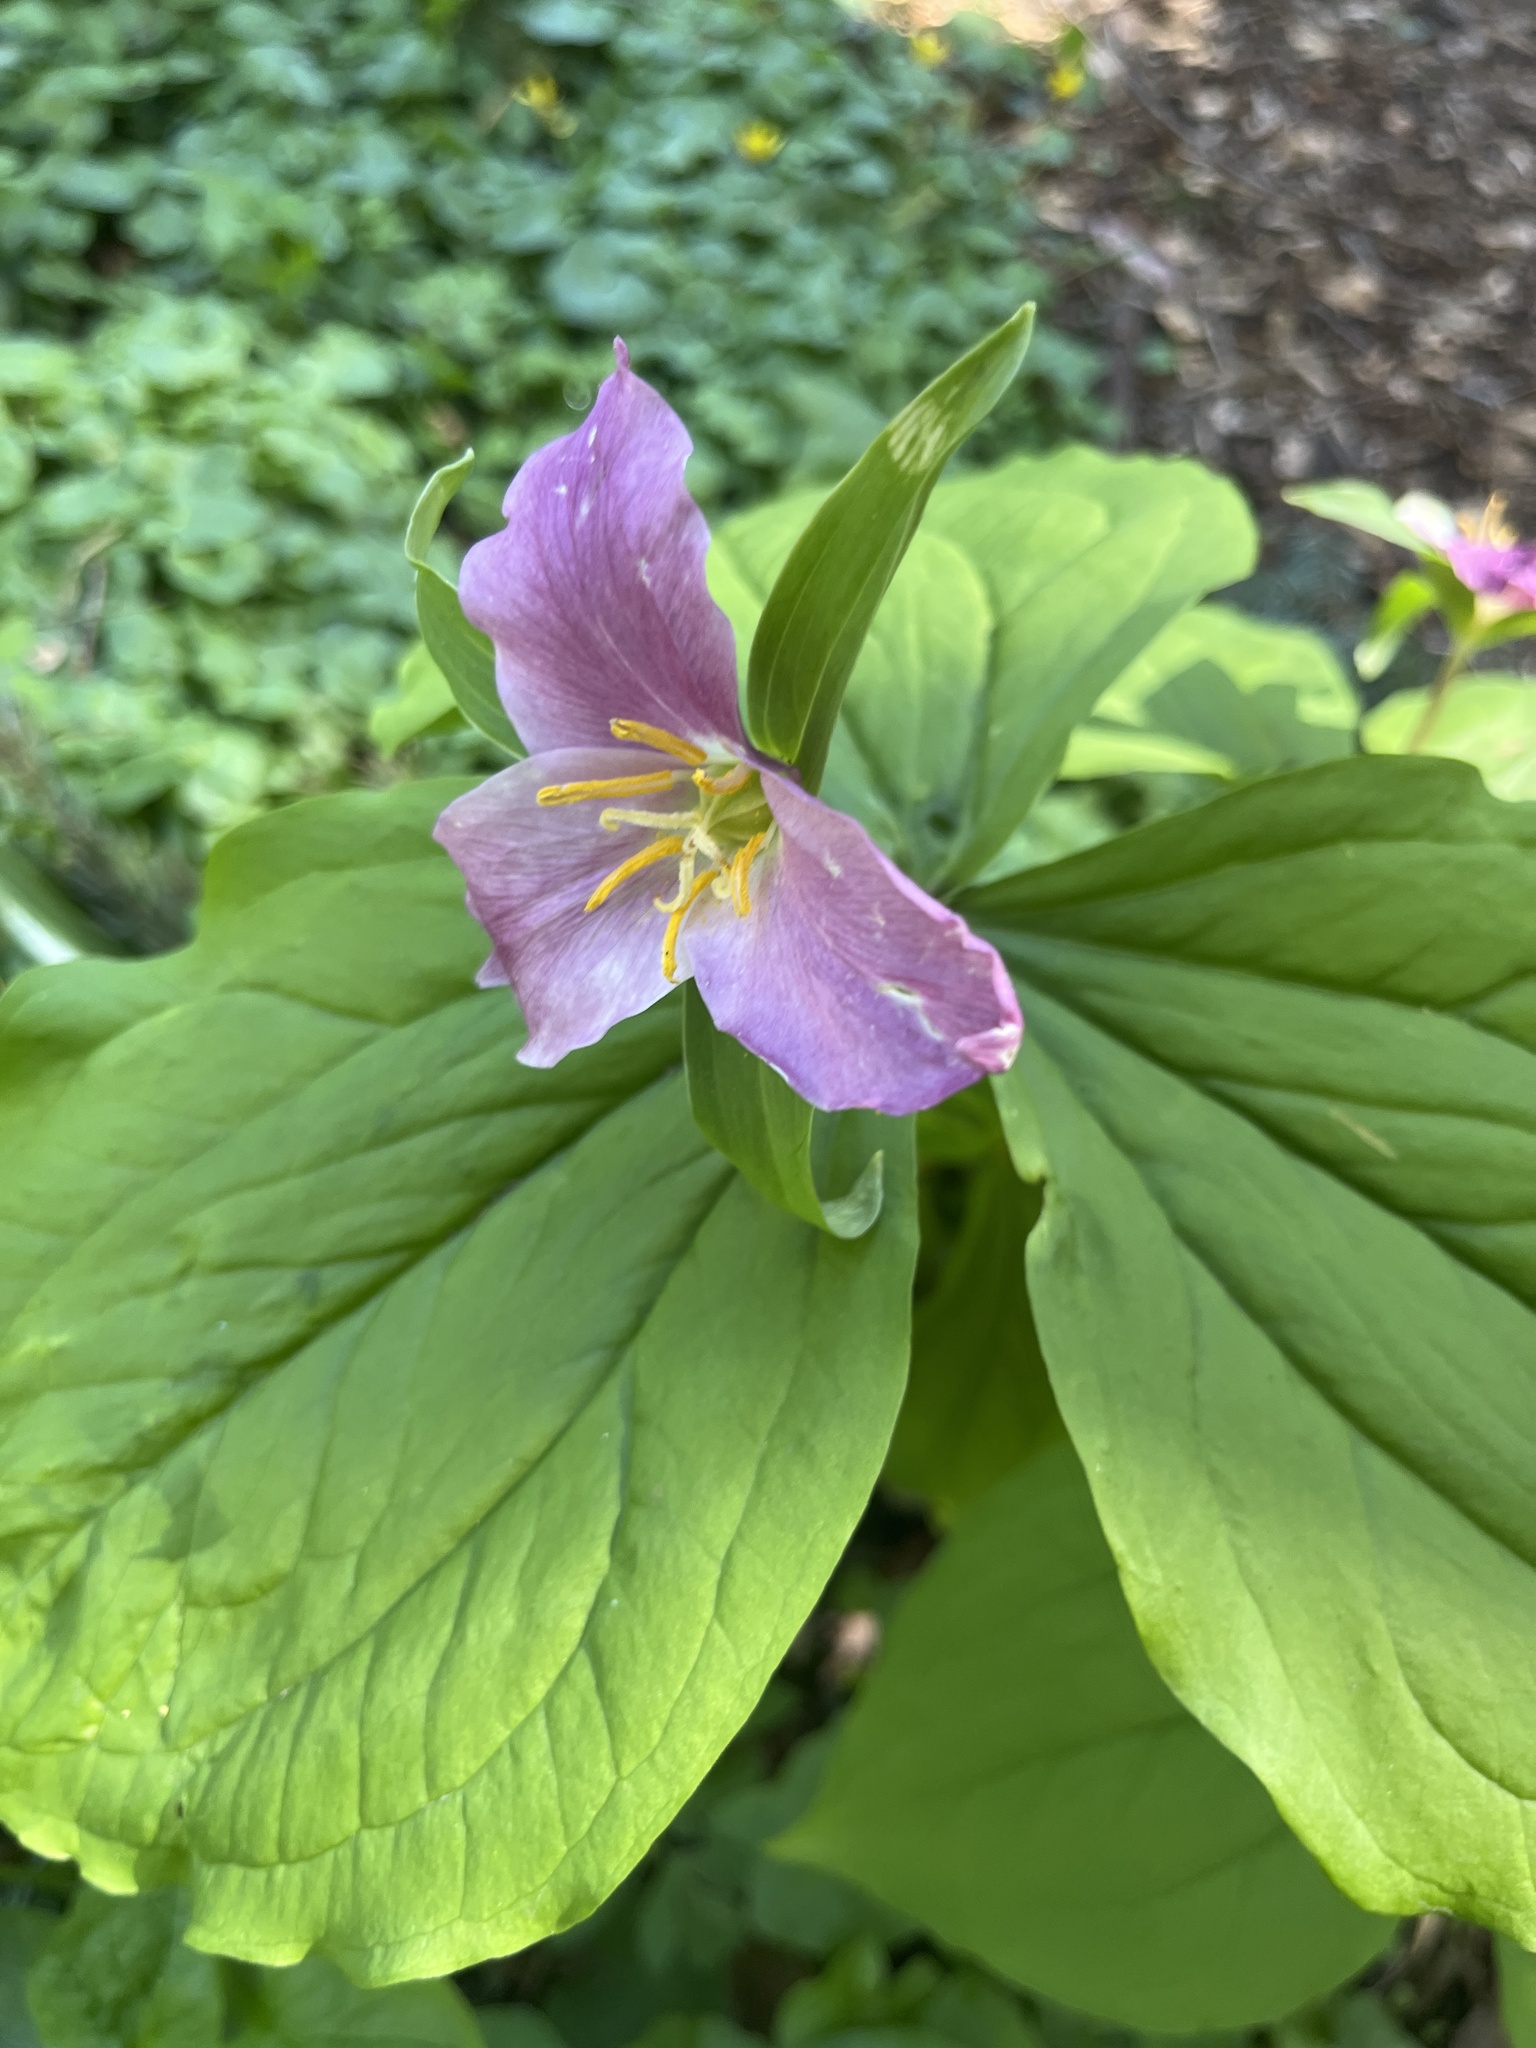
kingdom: Plantae
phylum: Tracheophyta
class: Liliopsida
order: Liliales
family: Melanthiaceae
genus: Trillium
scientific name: Trillium ovatum
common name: Pacific trillium
